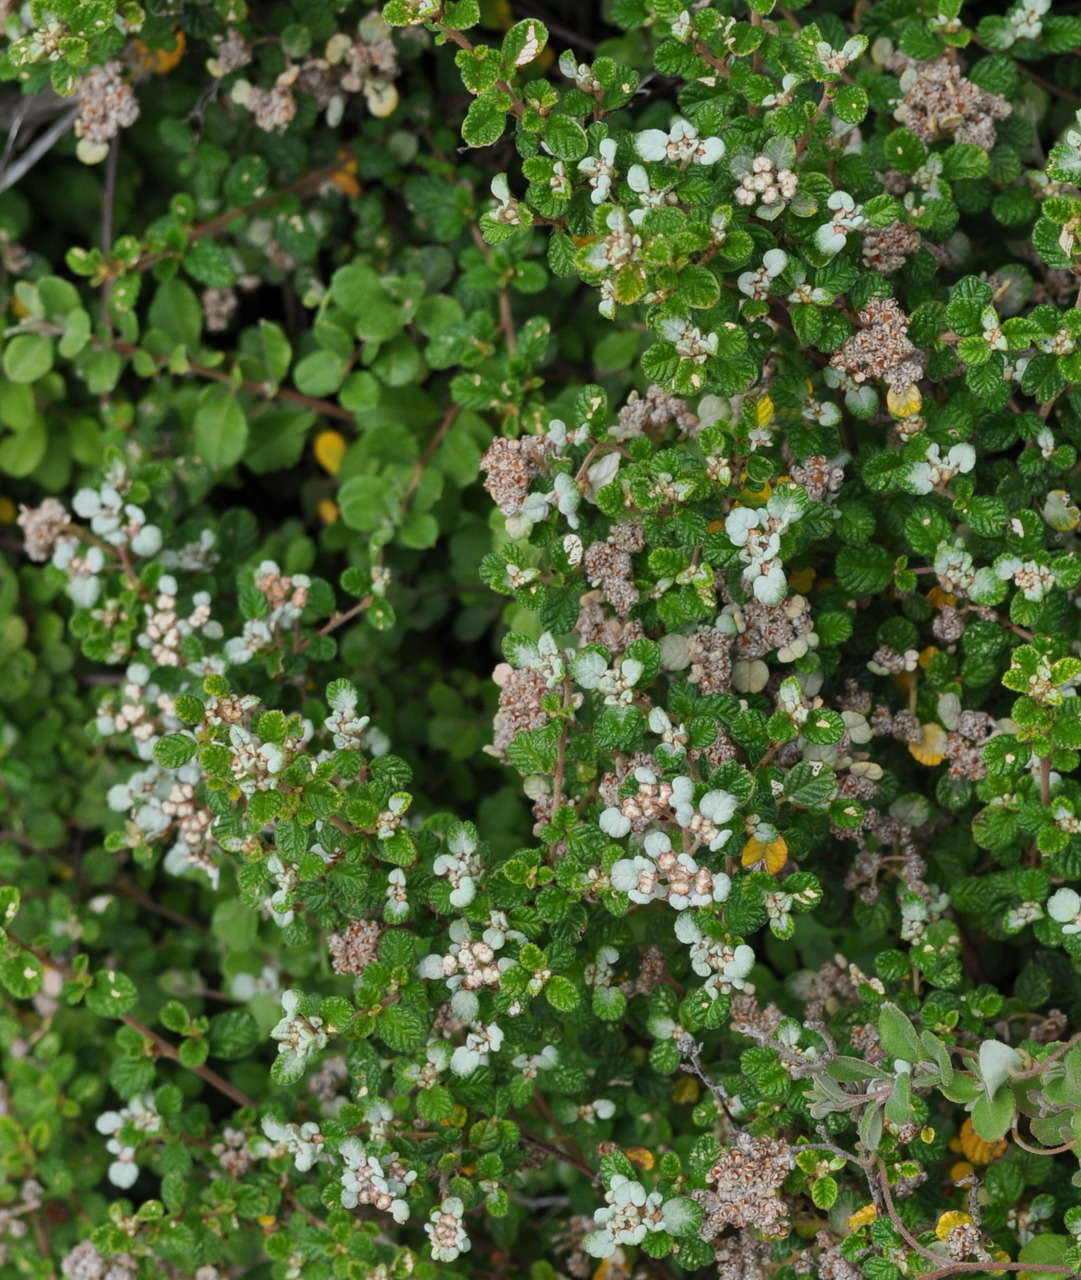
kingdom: Plantae
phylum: Tracheophyta
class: Magnoliopsida
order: Rosales
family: Rhamnaceae
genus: Spyridium
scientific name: Spyridium parvifolium
